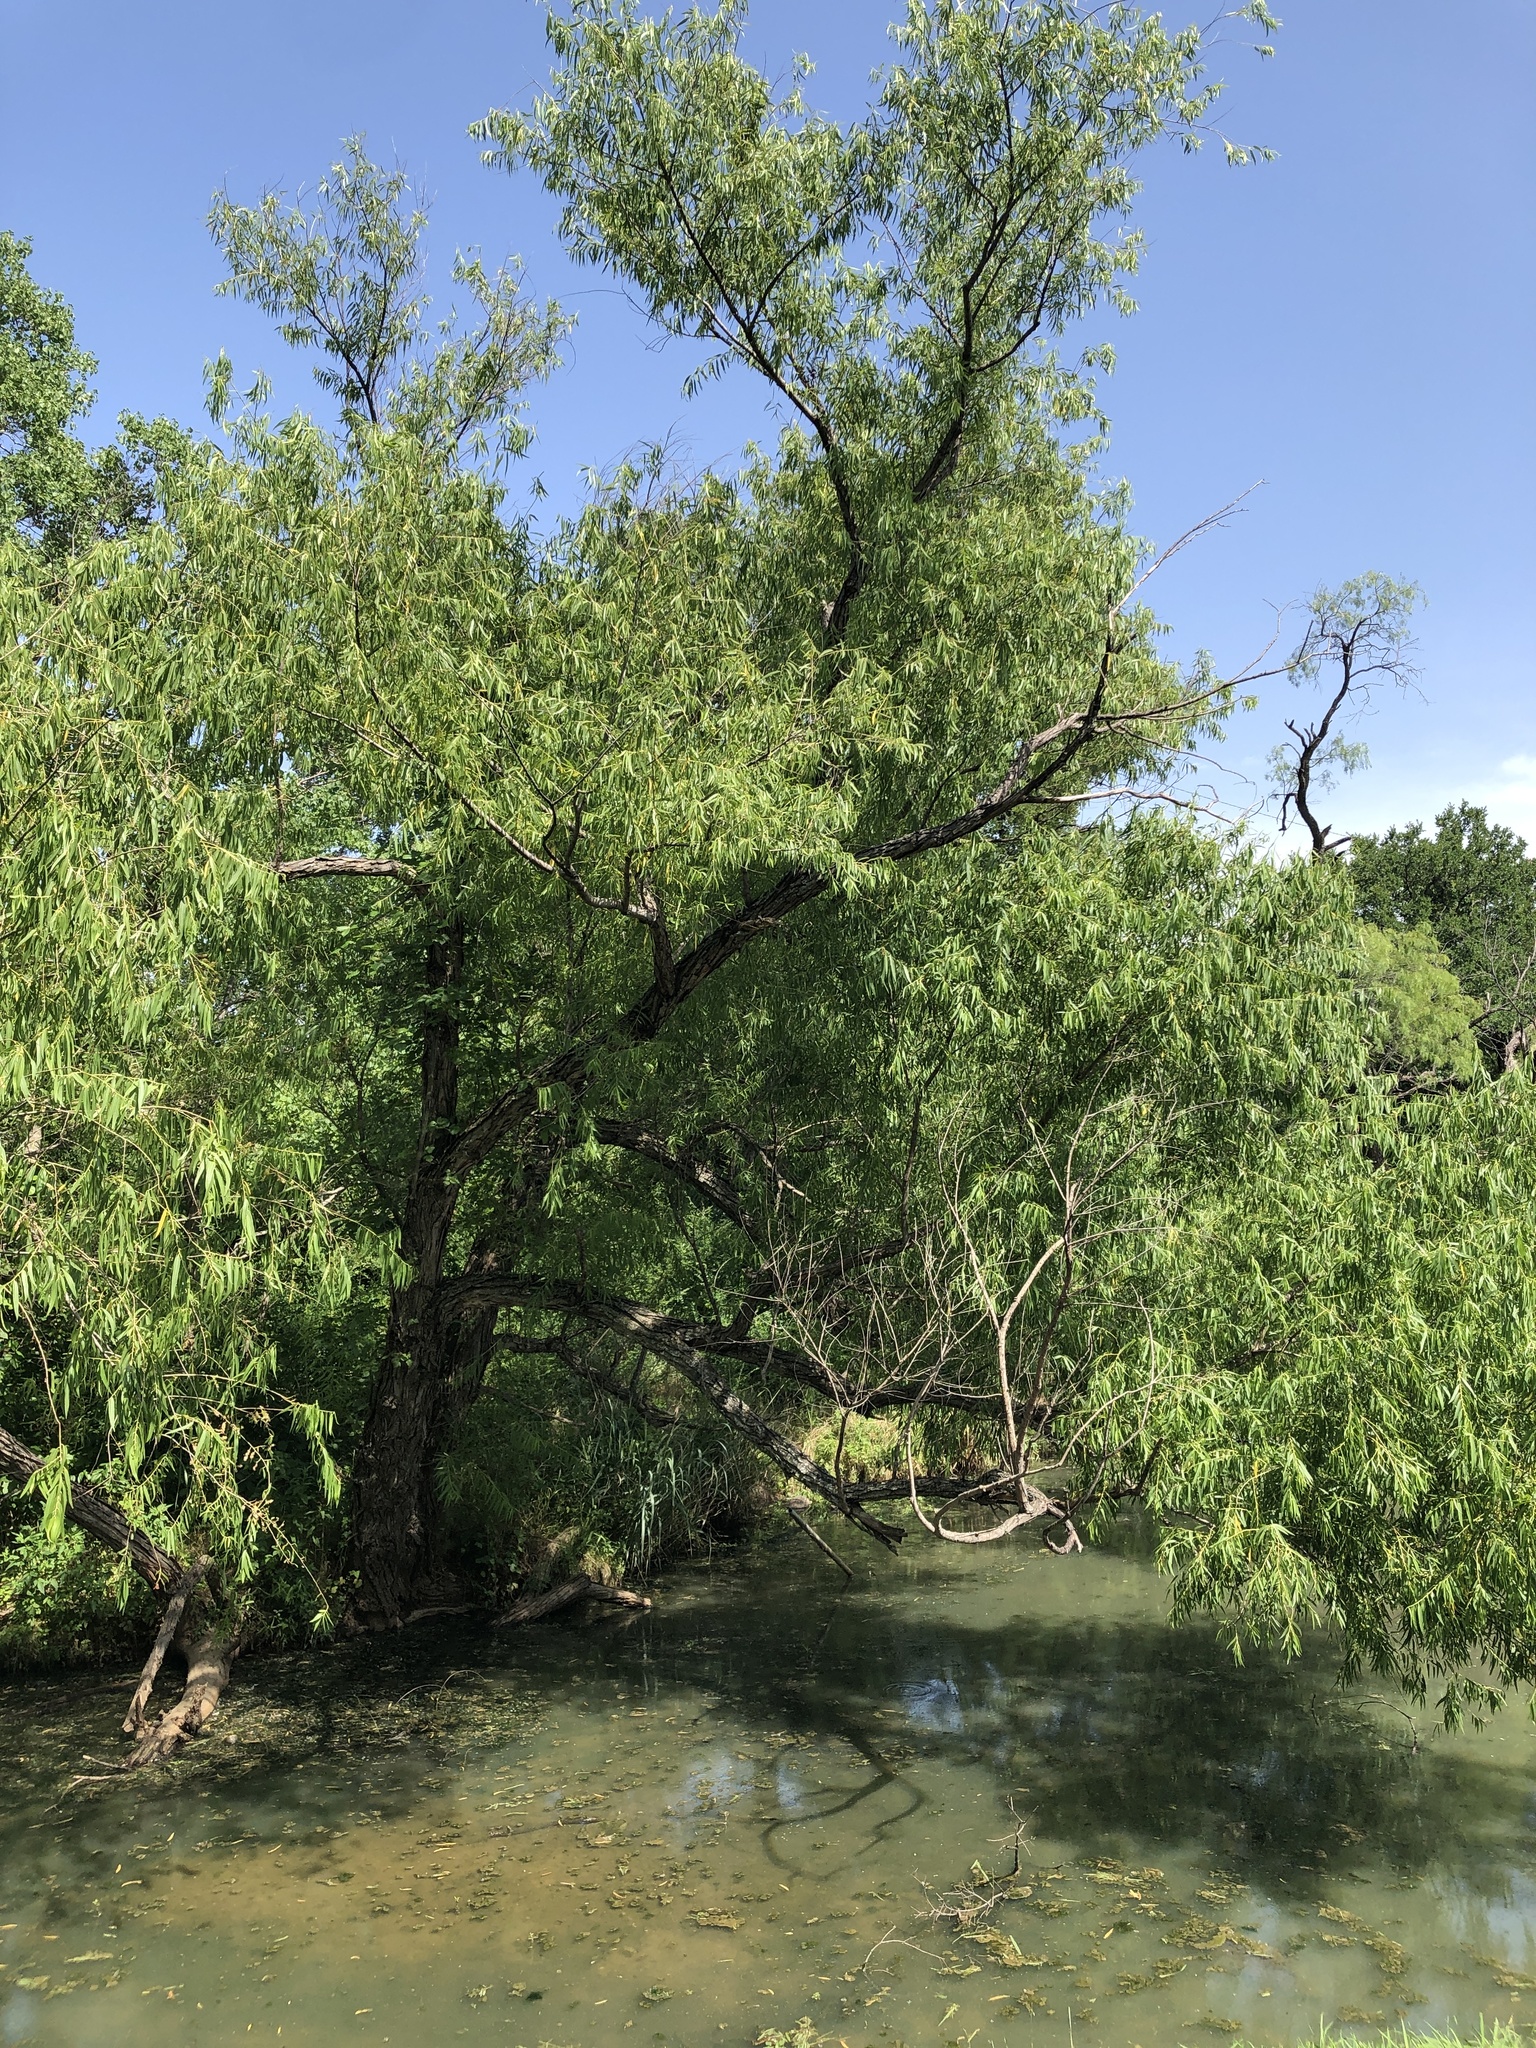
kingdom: Plantae
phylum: Tracheophyta
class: Magnoliopsida
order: Malpighiales
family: Salicaceae
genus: Salix
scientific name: Salix nigra
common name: Black willow
